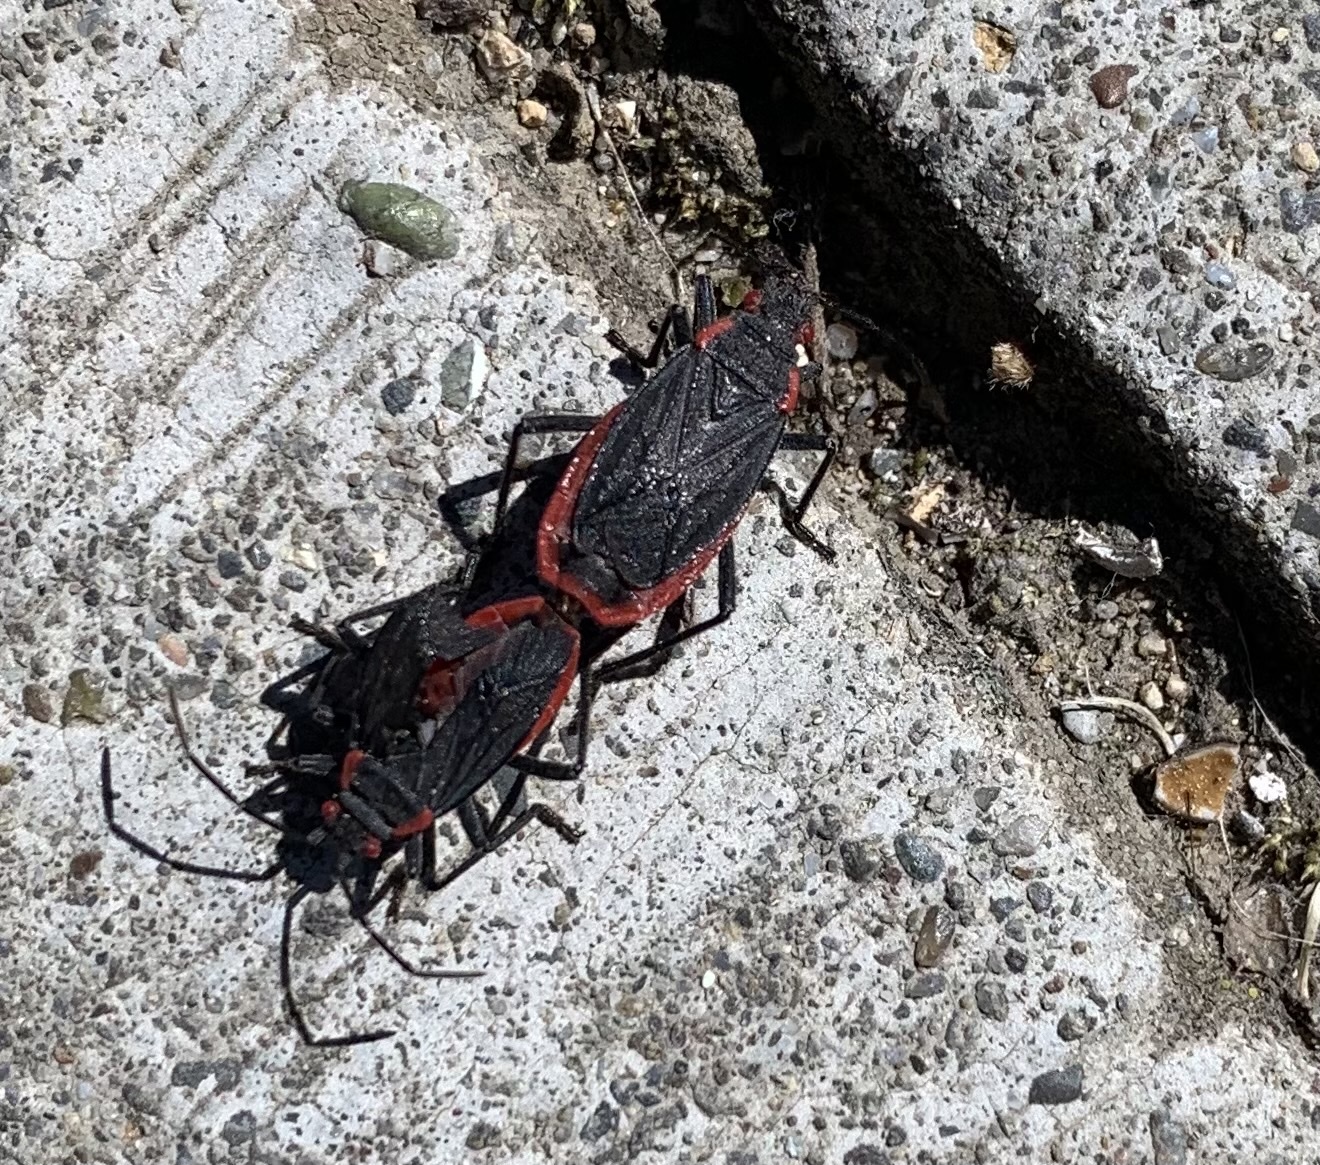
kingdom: Animalia
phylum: Arthropoda
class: Insecta
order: Hemiptera
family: Rhopalidae
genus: Jadera
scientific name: Jadera haematoloma
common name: Red-shouldered bug
